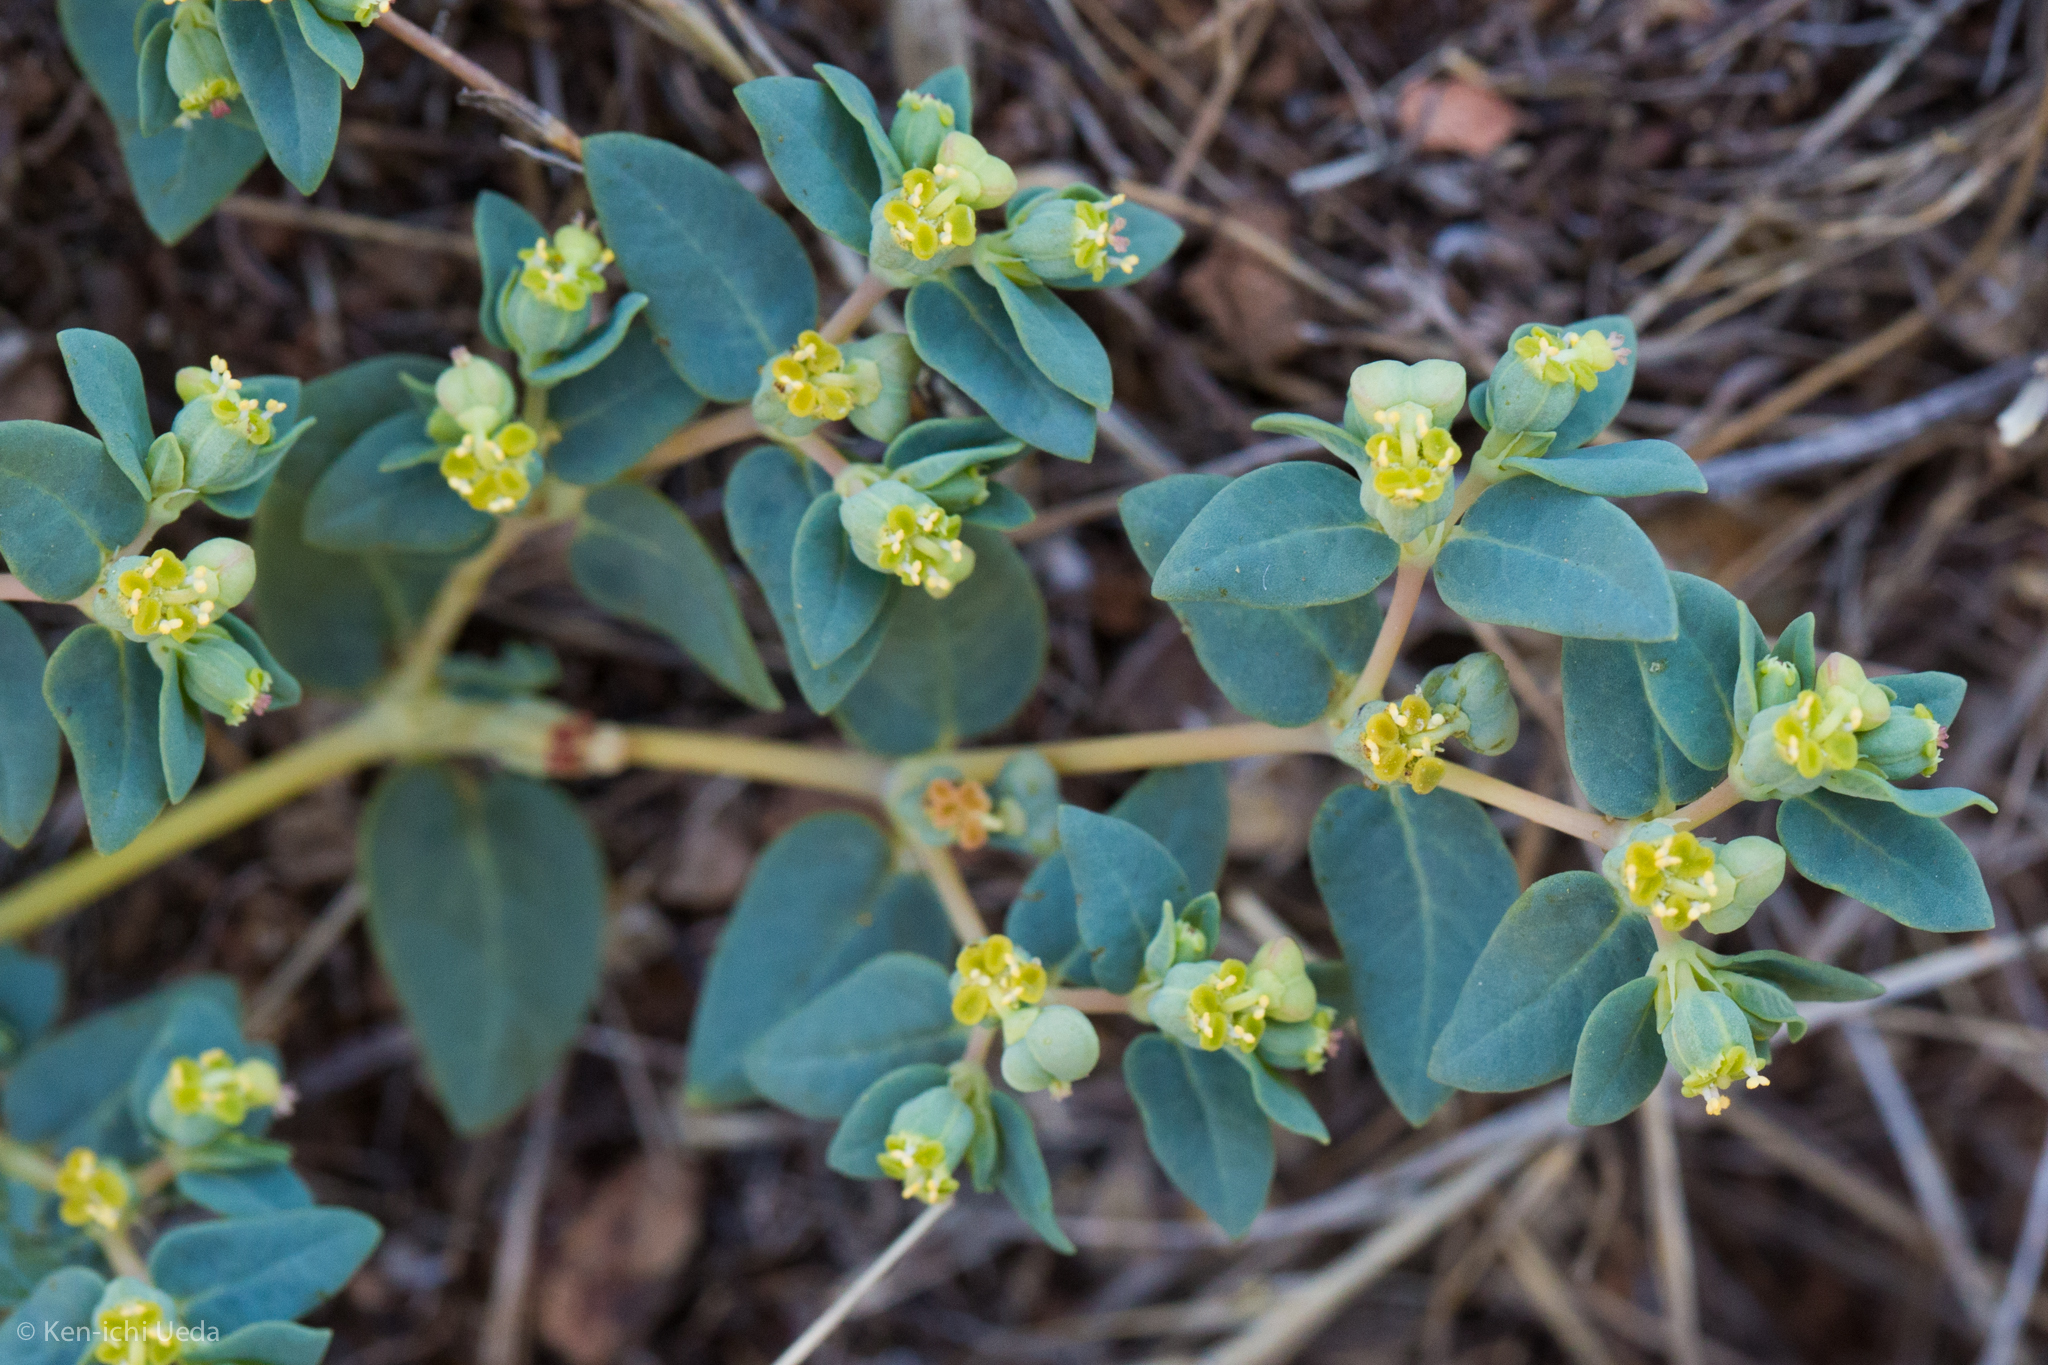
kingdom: Plantae
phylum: Tracheophyta
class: Magnoliopsida
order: Malpighiales
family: Euphorbiaceae
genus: Euphorbia
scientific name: Euphorbia ocellata
